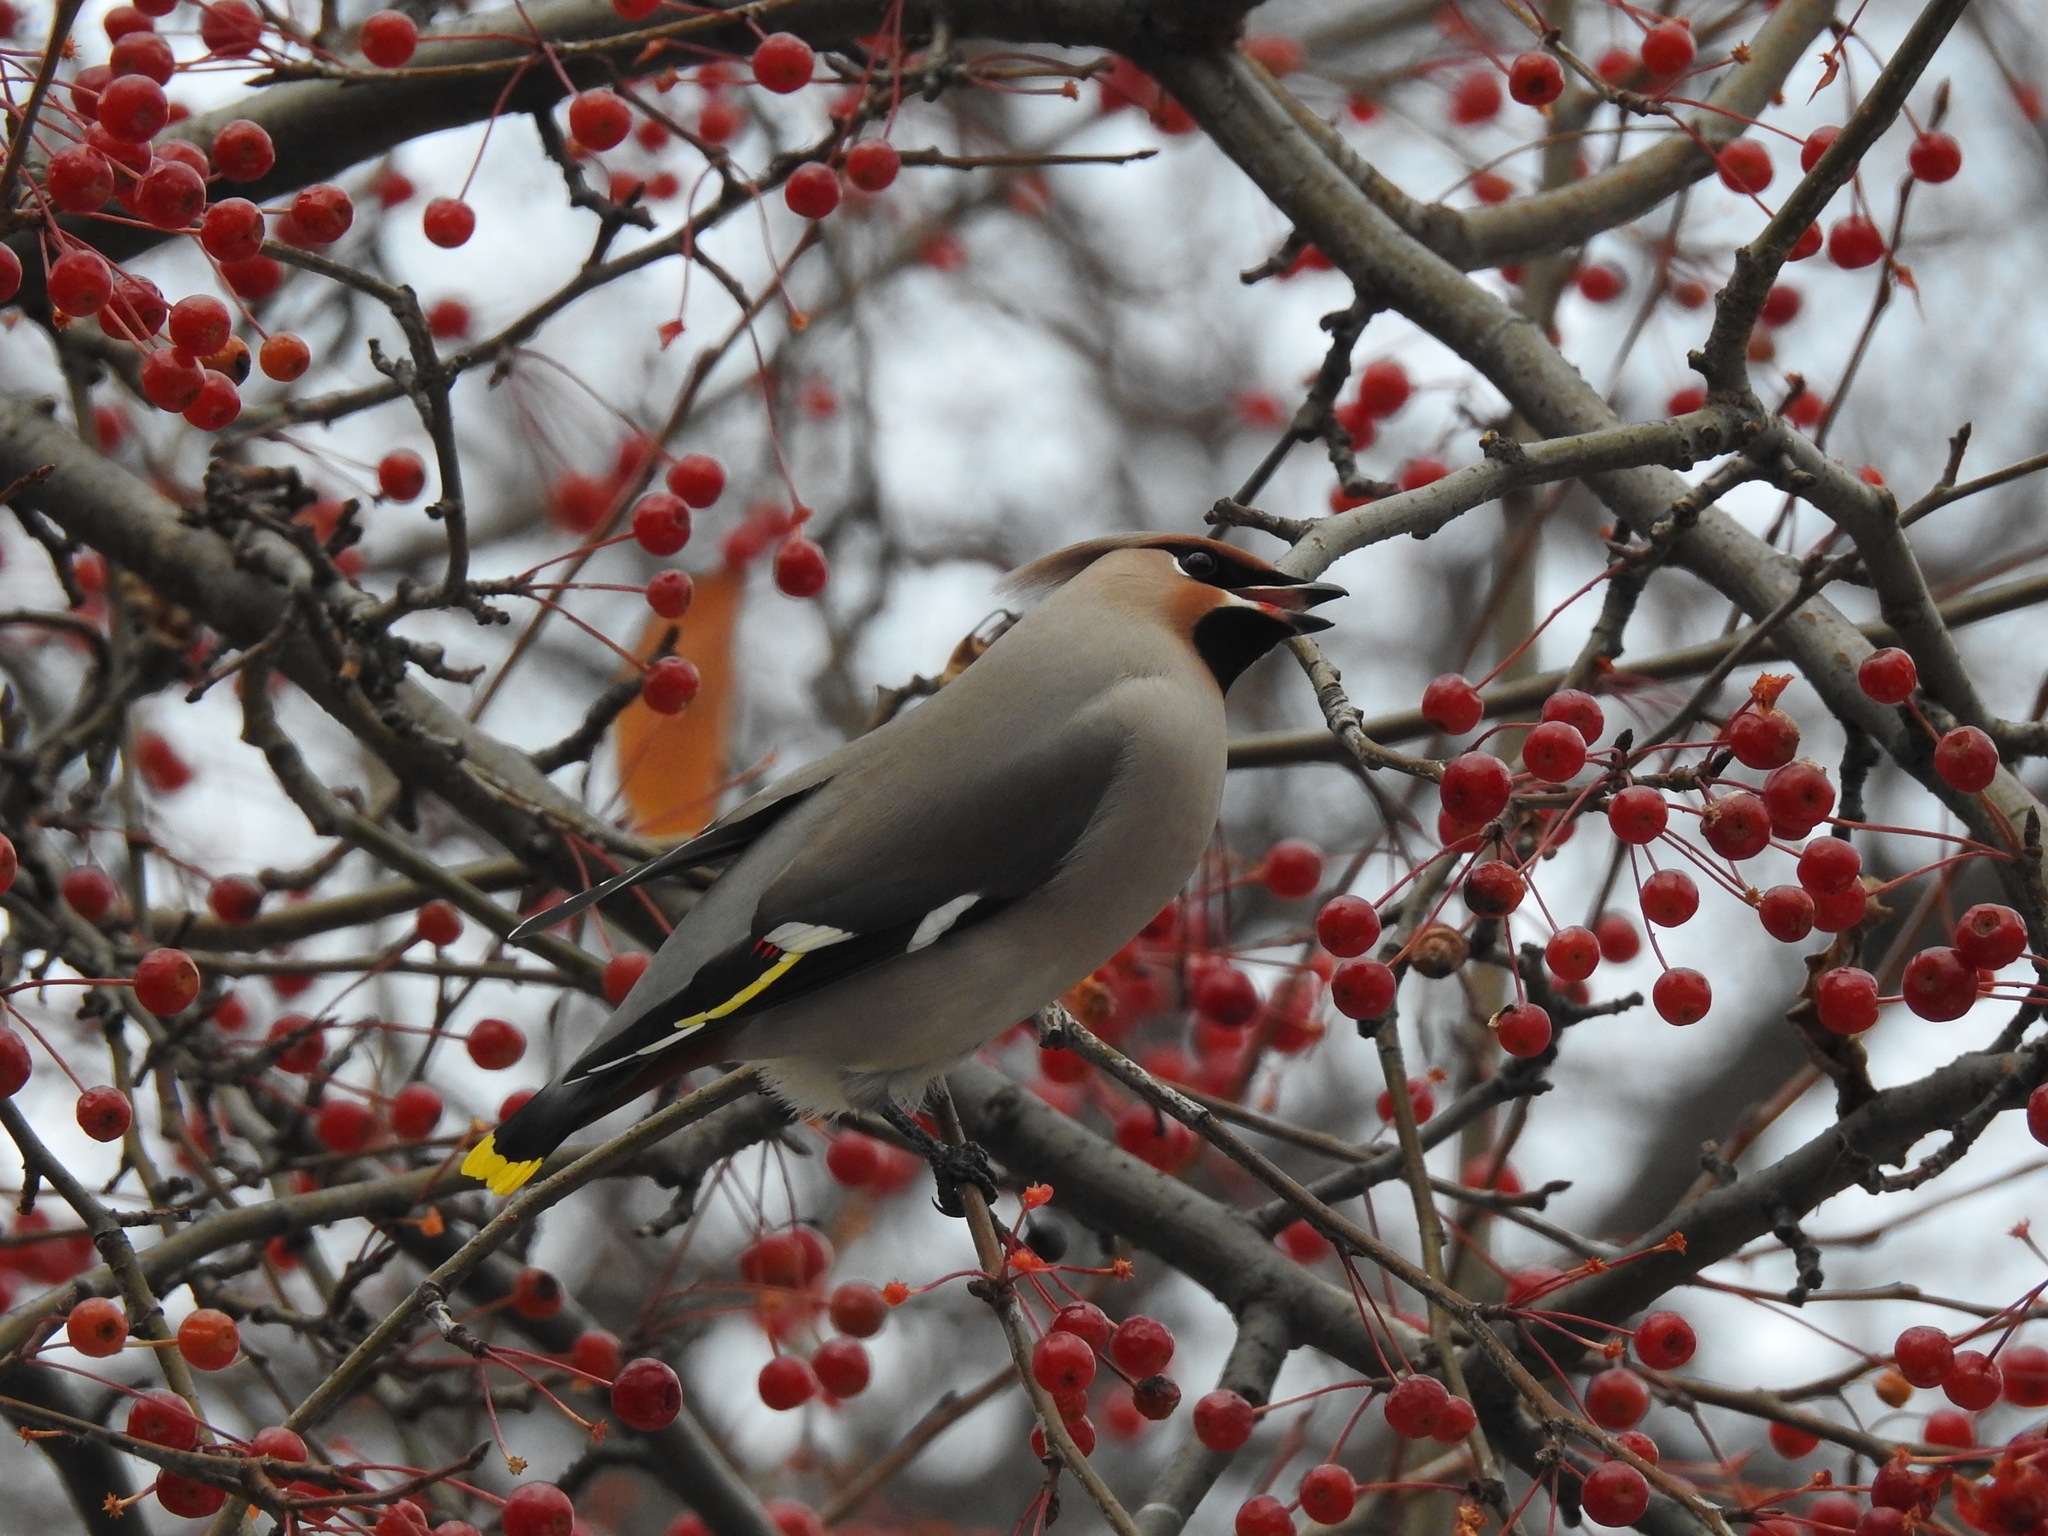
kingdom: Animalia
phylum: Chordata
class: Aves
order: Passeriformes
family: Bombycillidae
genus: Bombycilla
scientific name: Bombycilla garrulus
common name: Bohemian waxwing
